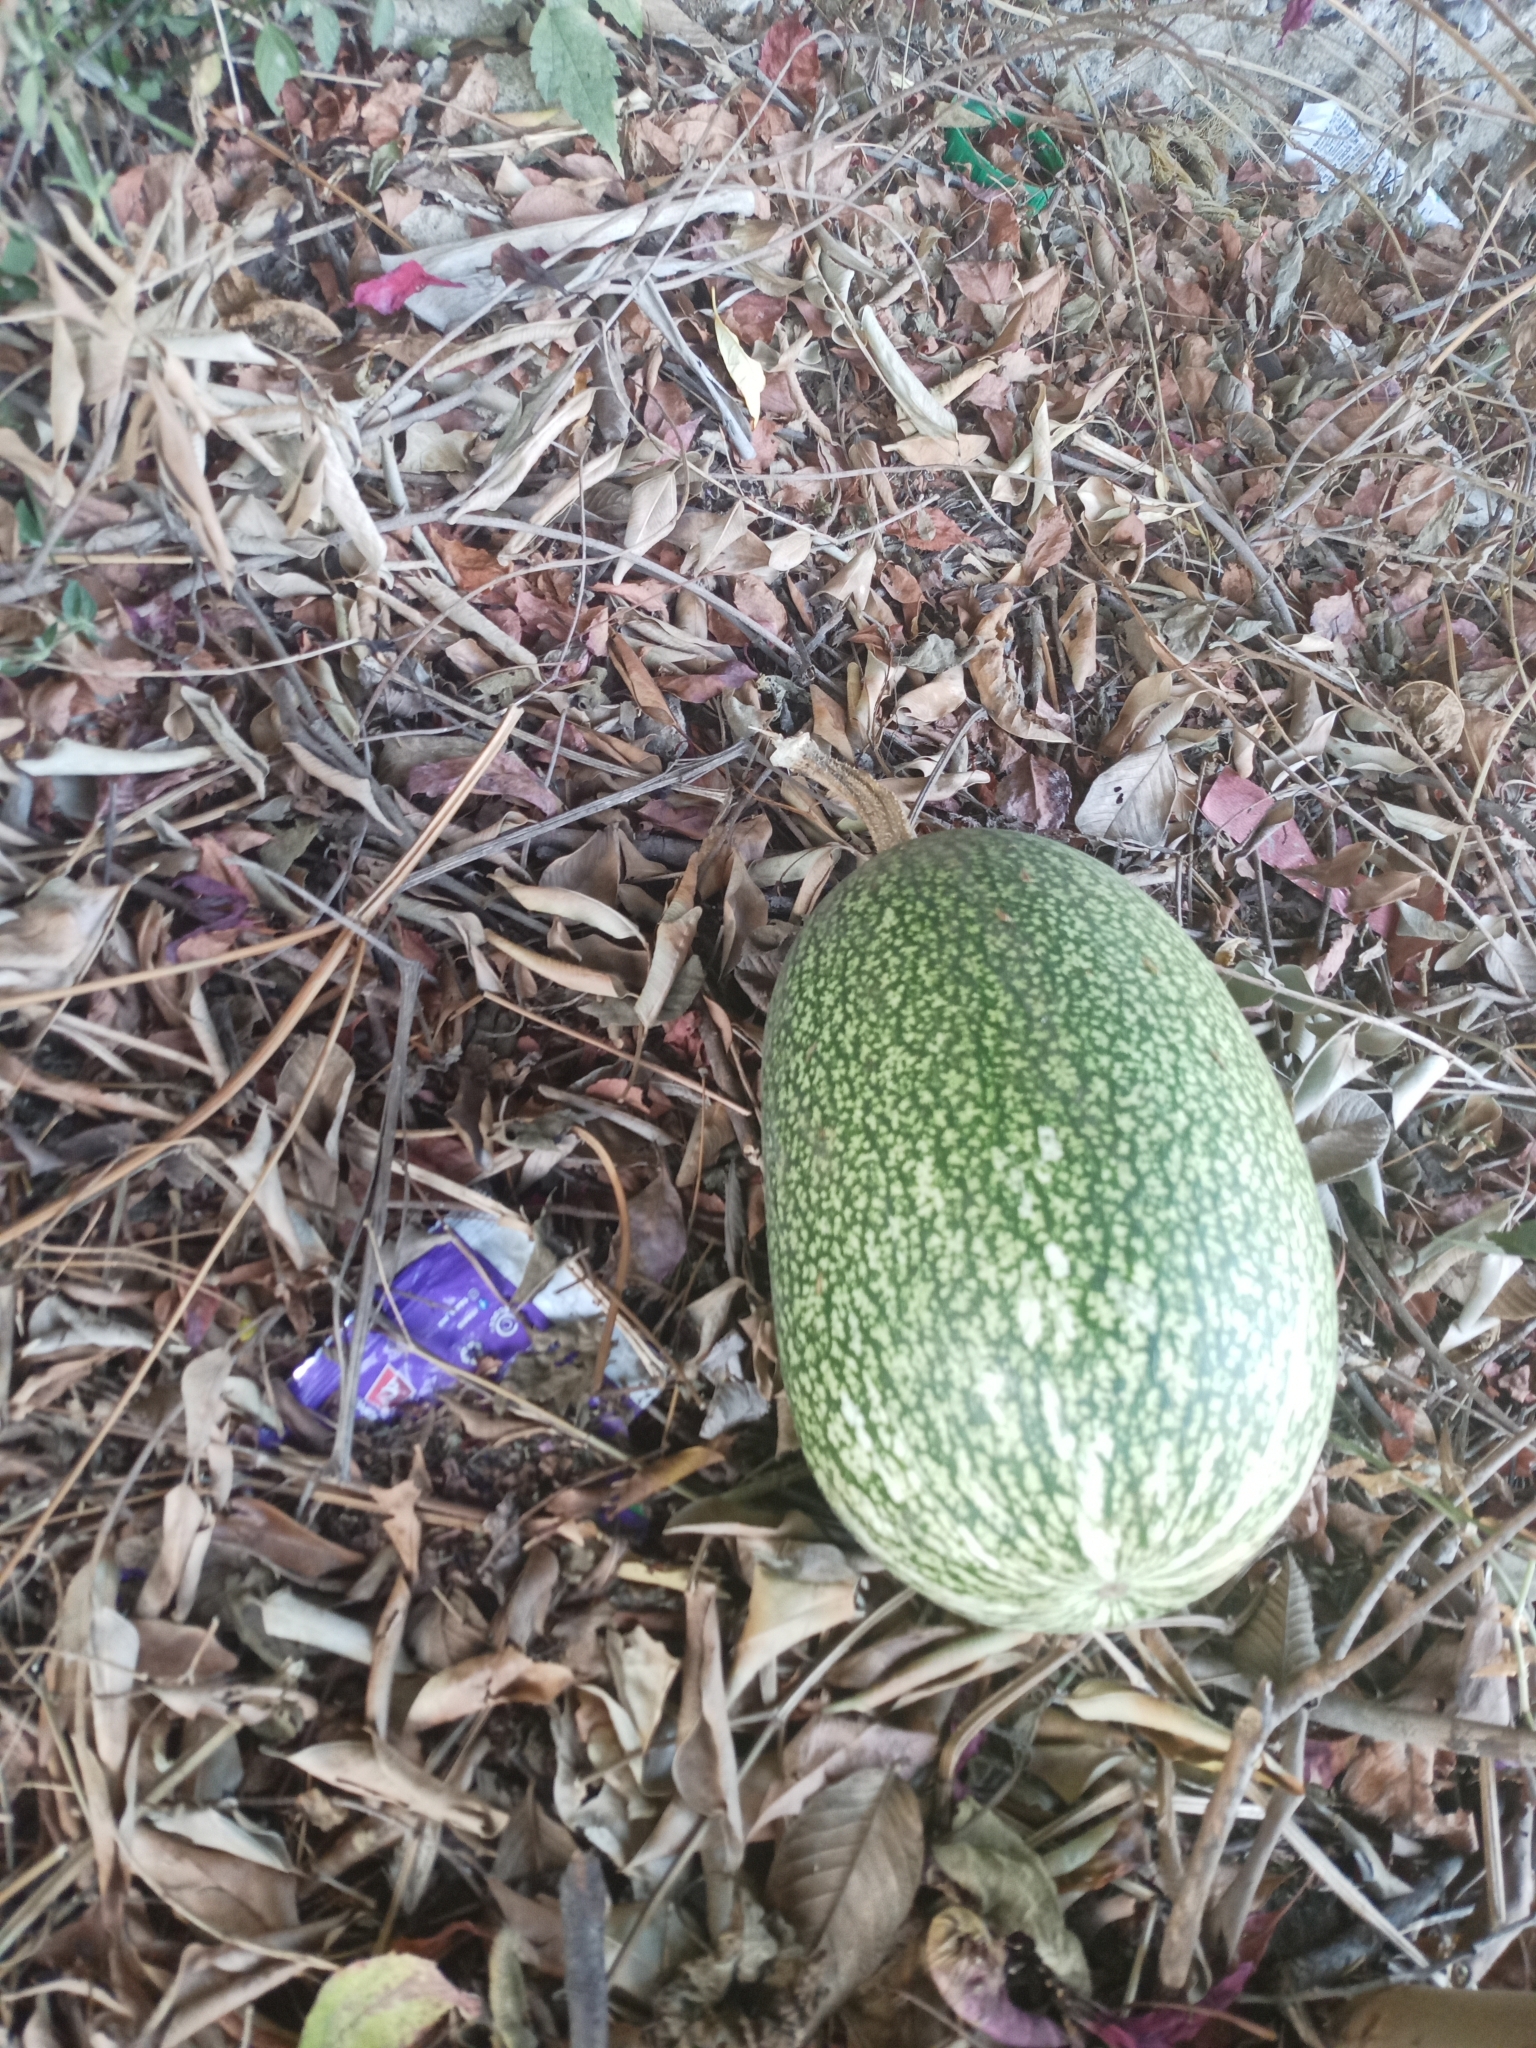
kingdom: Plantae
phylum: Tracheophyta
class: Magnoliopsida
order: Cucurbitales
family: Cucurbitaceae
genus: Cucurbita
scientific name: Cucurbita ficifolia
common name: Figleaf gourd
